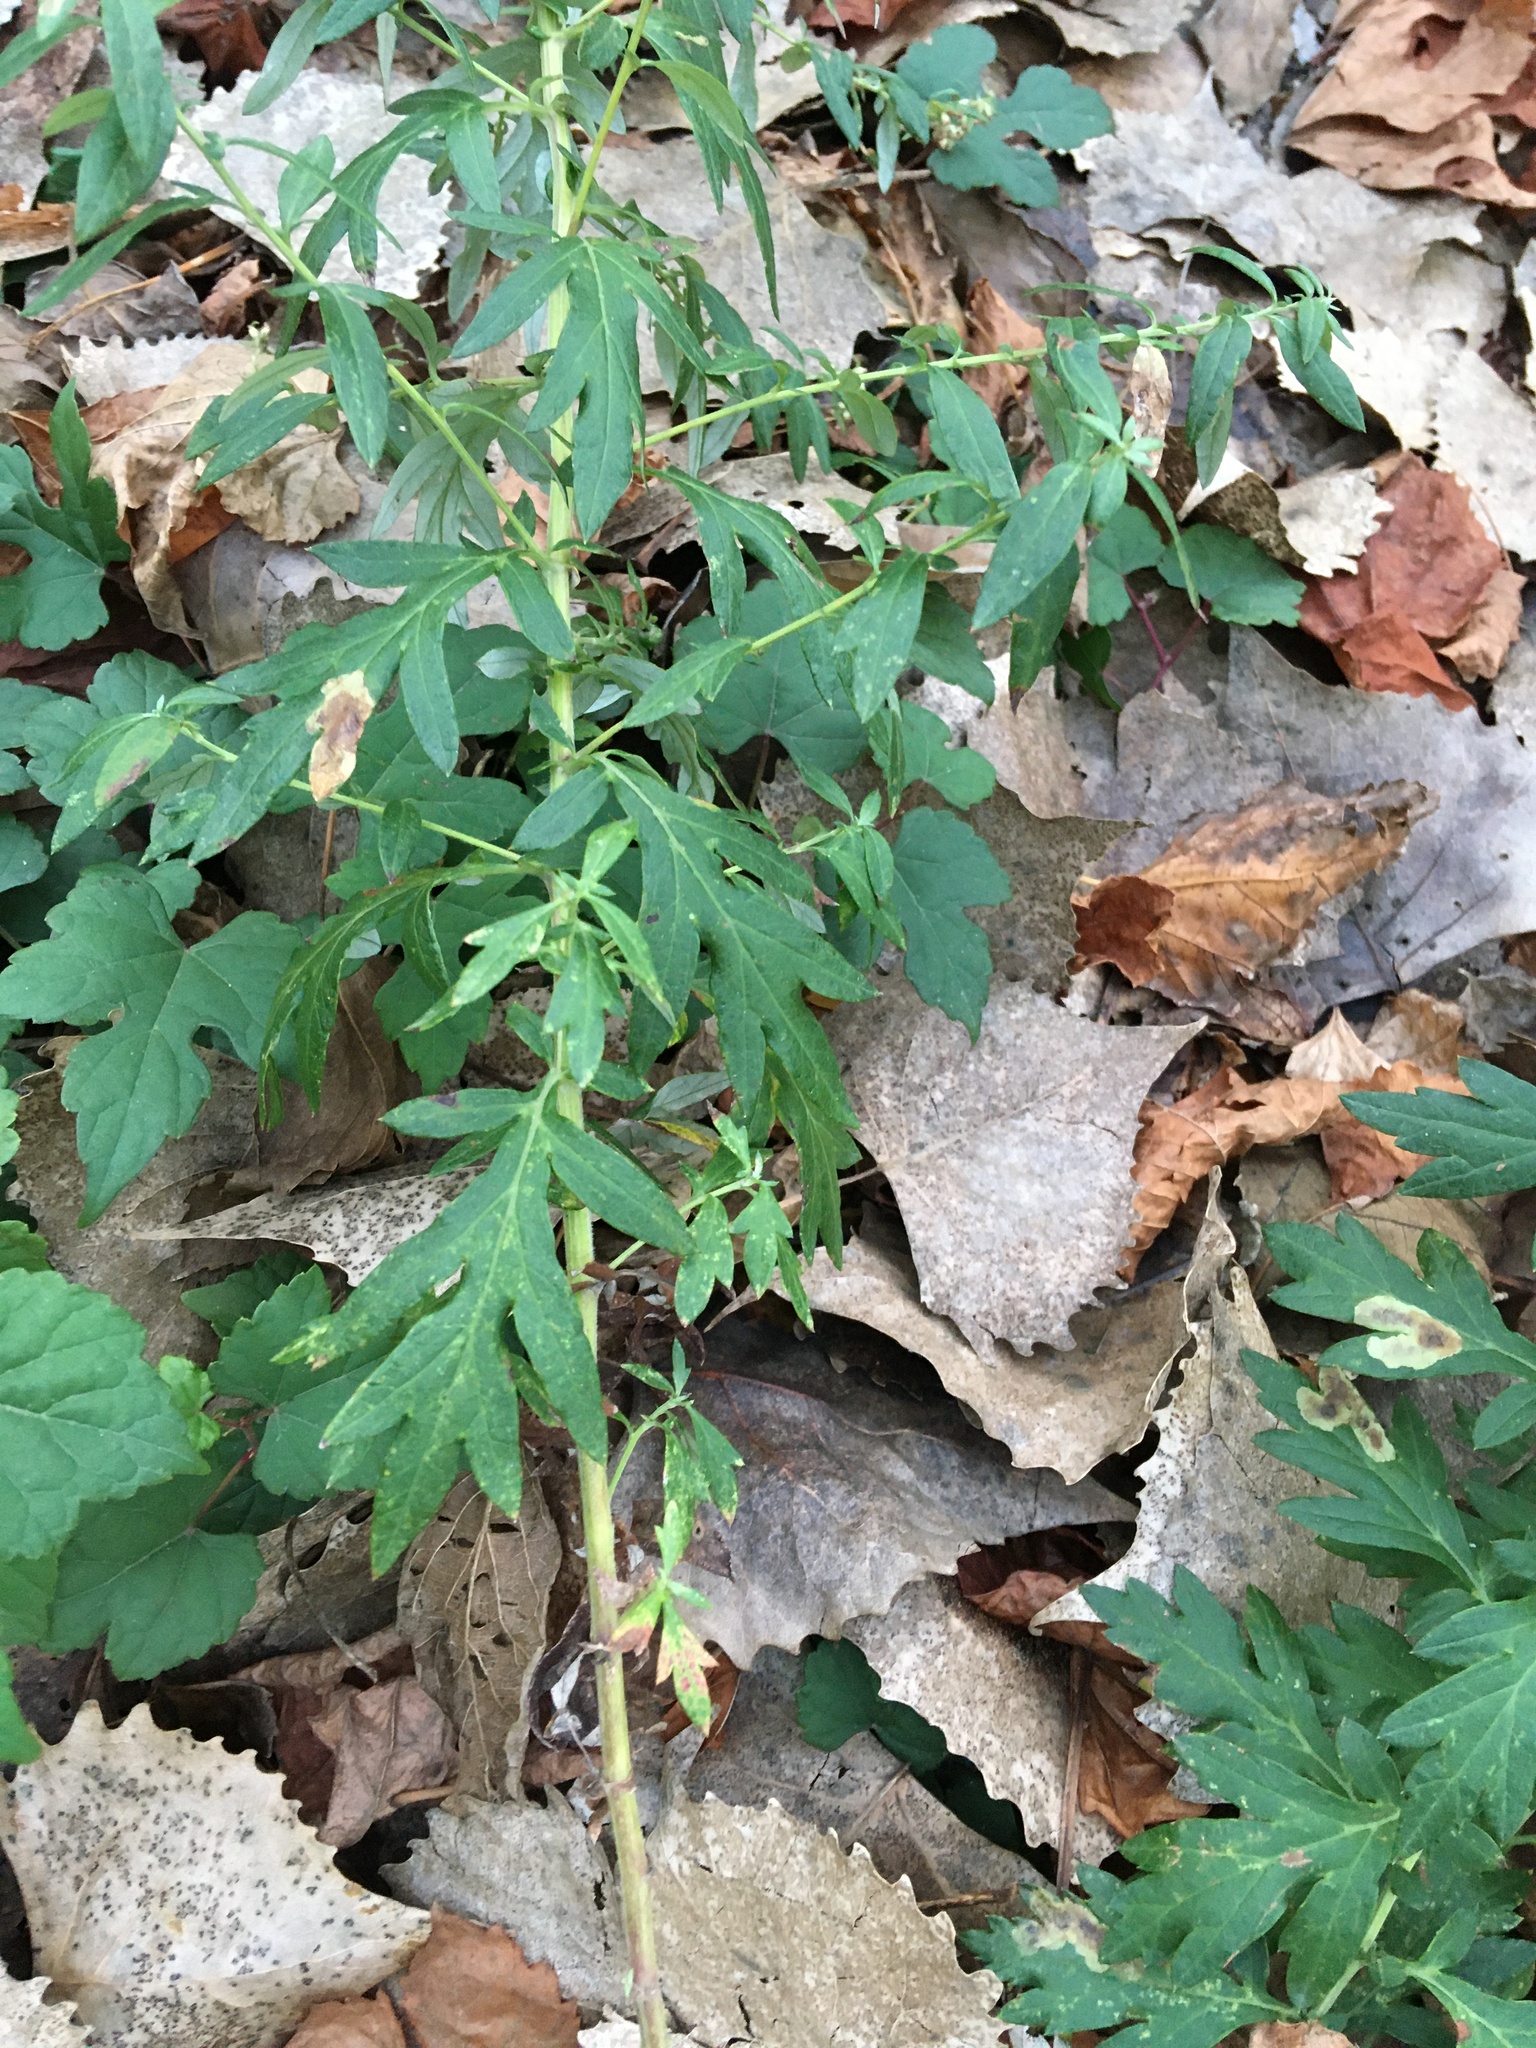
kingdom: Plantae
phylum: Tracheophyta
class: Magnoliopsida
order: Asterales
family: Asteraceae
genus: Artemisia
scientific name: Artemisia vulgaris
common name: Mugwort
